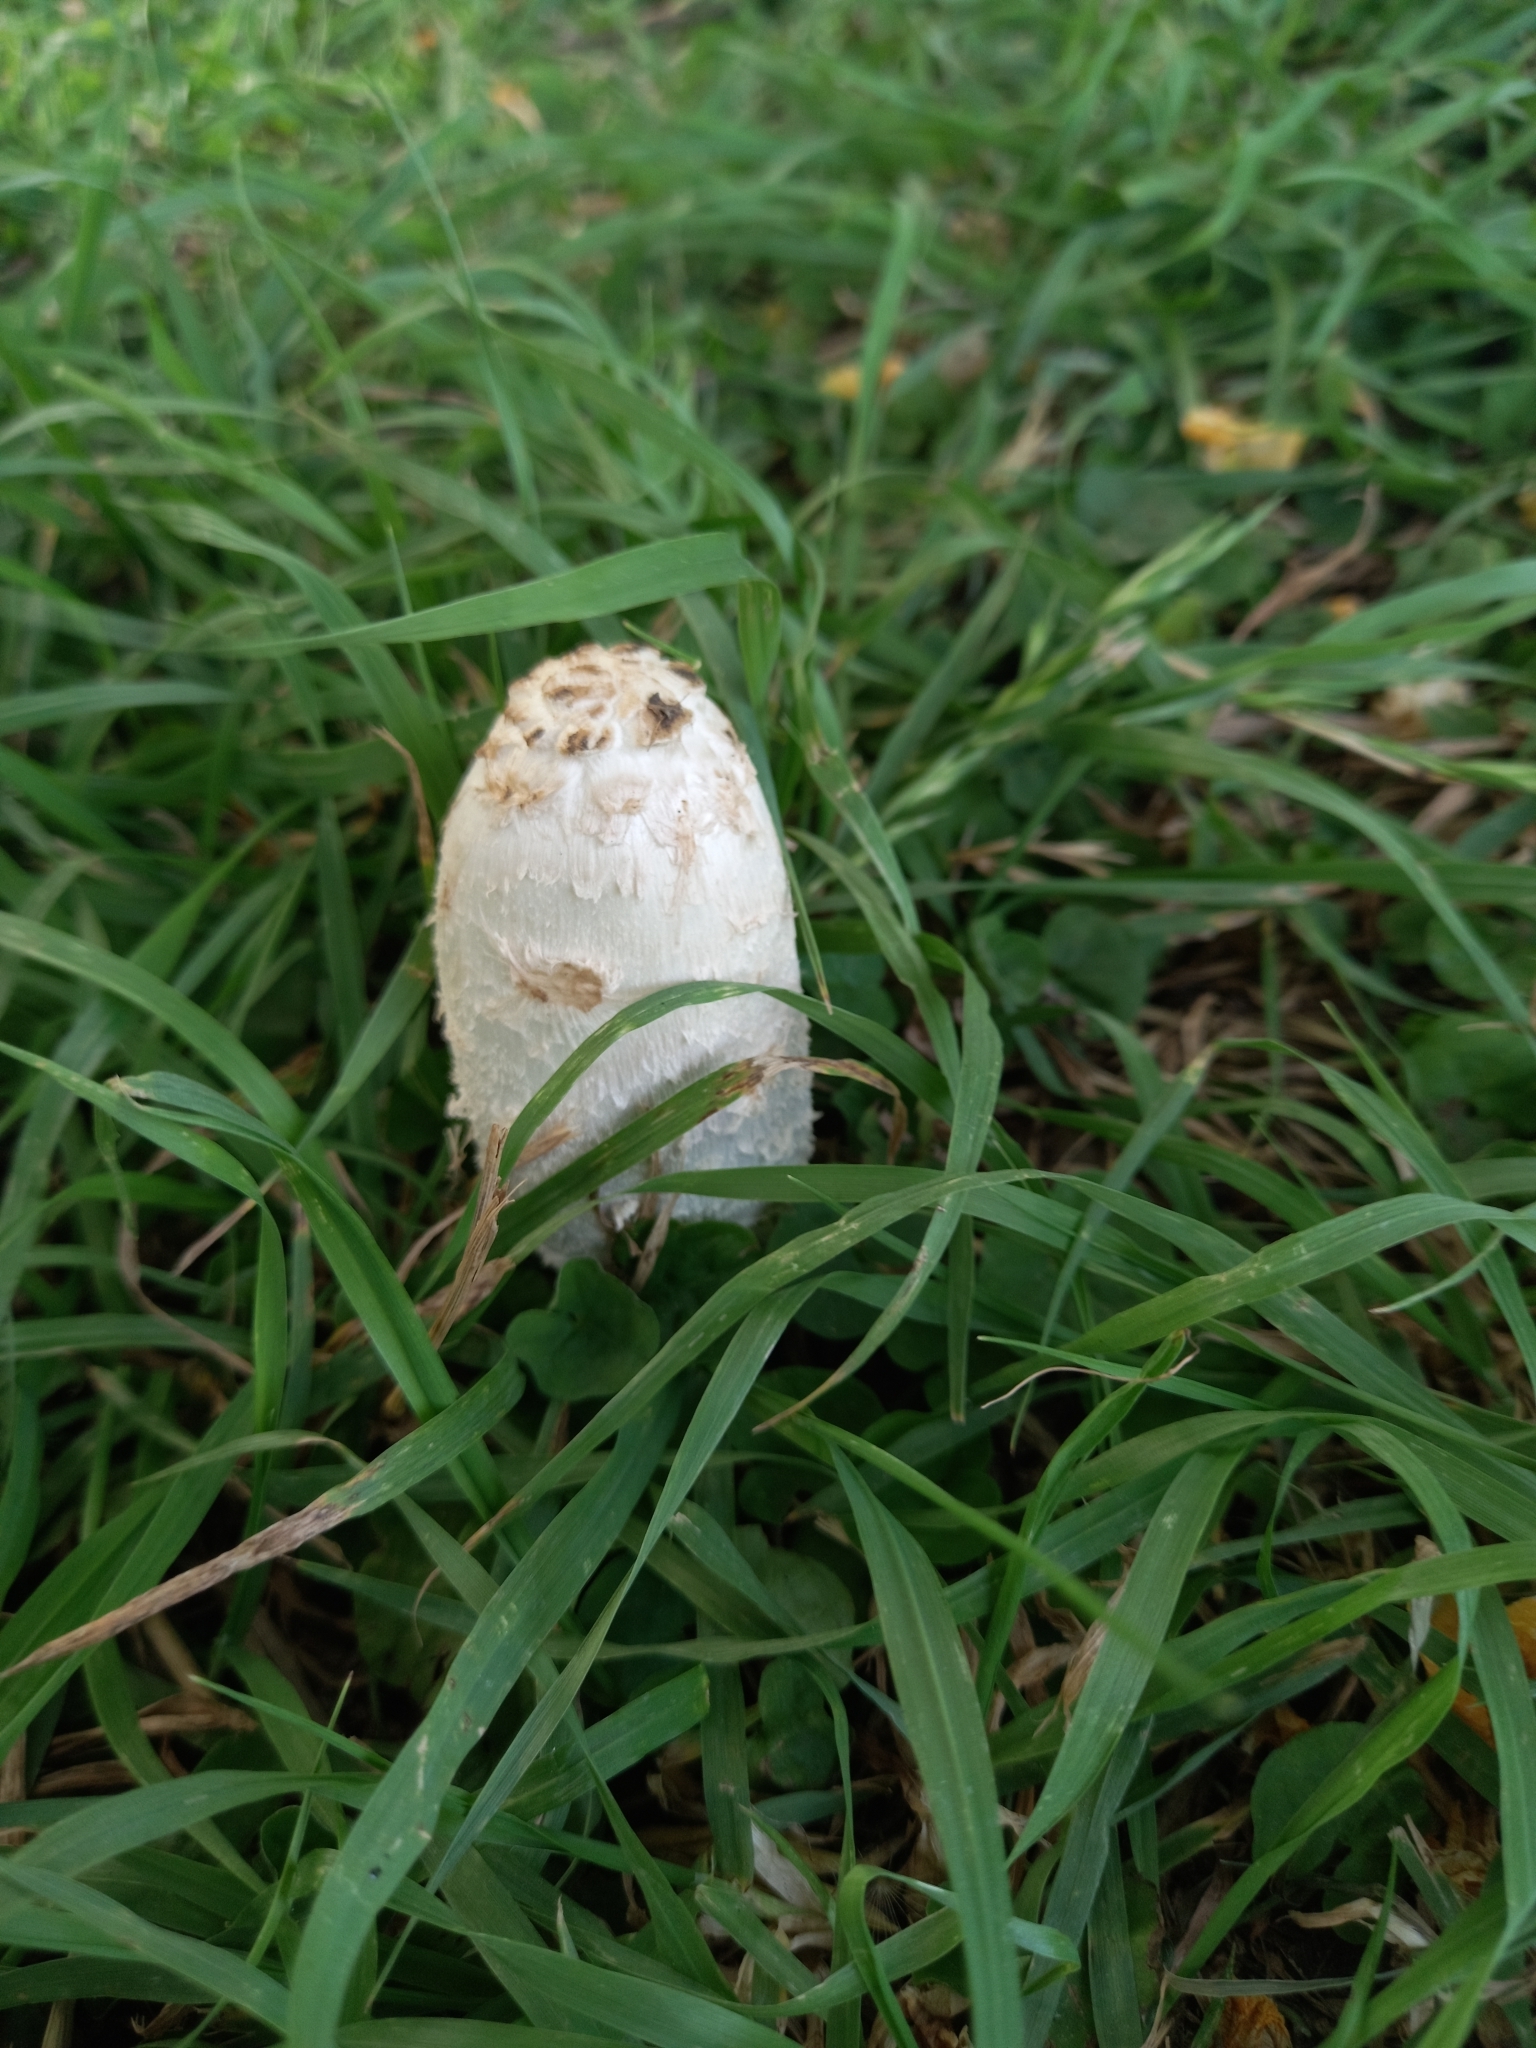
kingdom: Fungi
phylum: Basidiomycota
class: Agaricomycetes
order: Agaricales
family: Agaricaceae
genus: Coprinus
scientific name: Coprinus comatus
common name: Lawyer's wig
